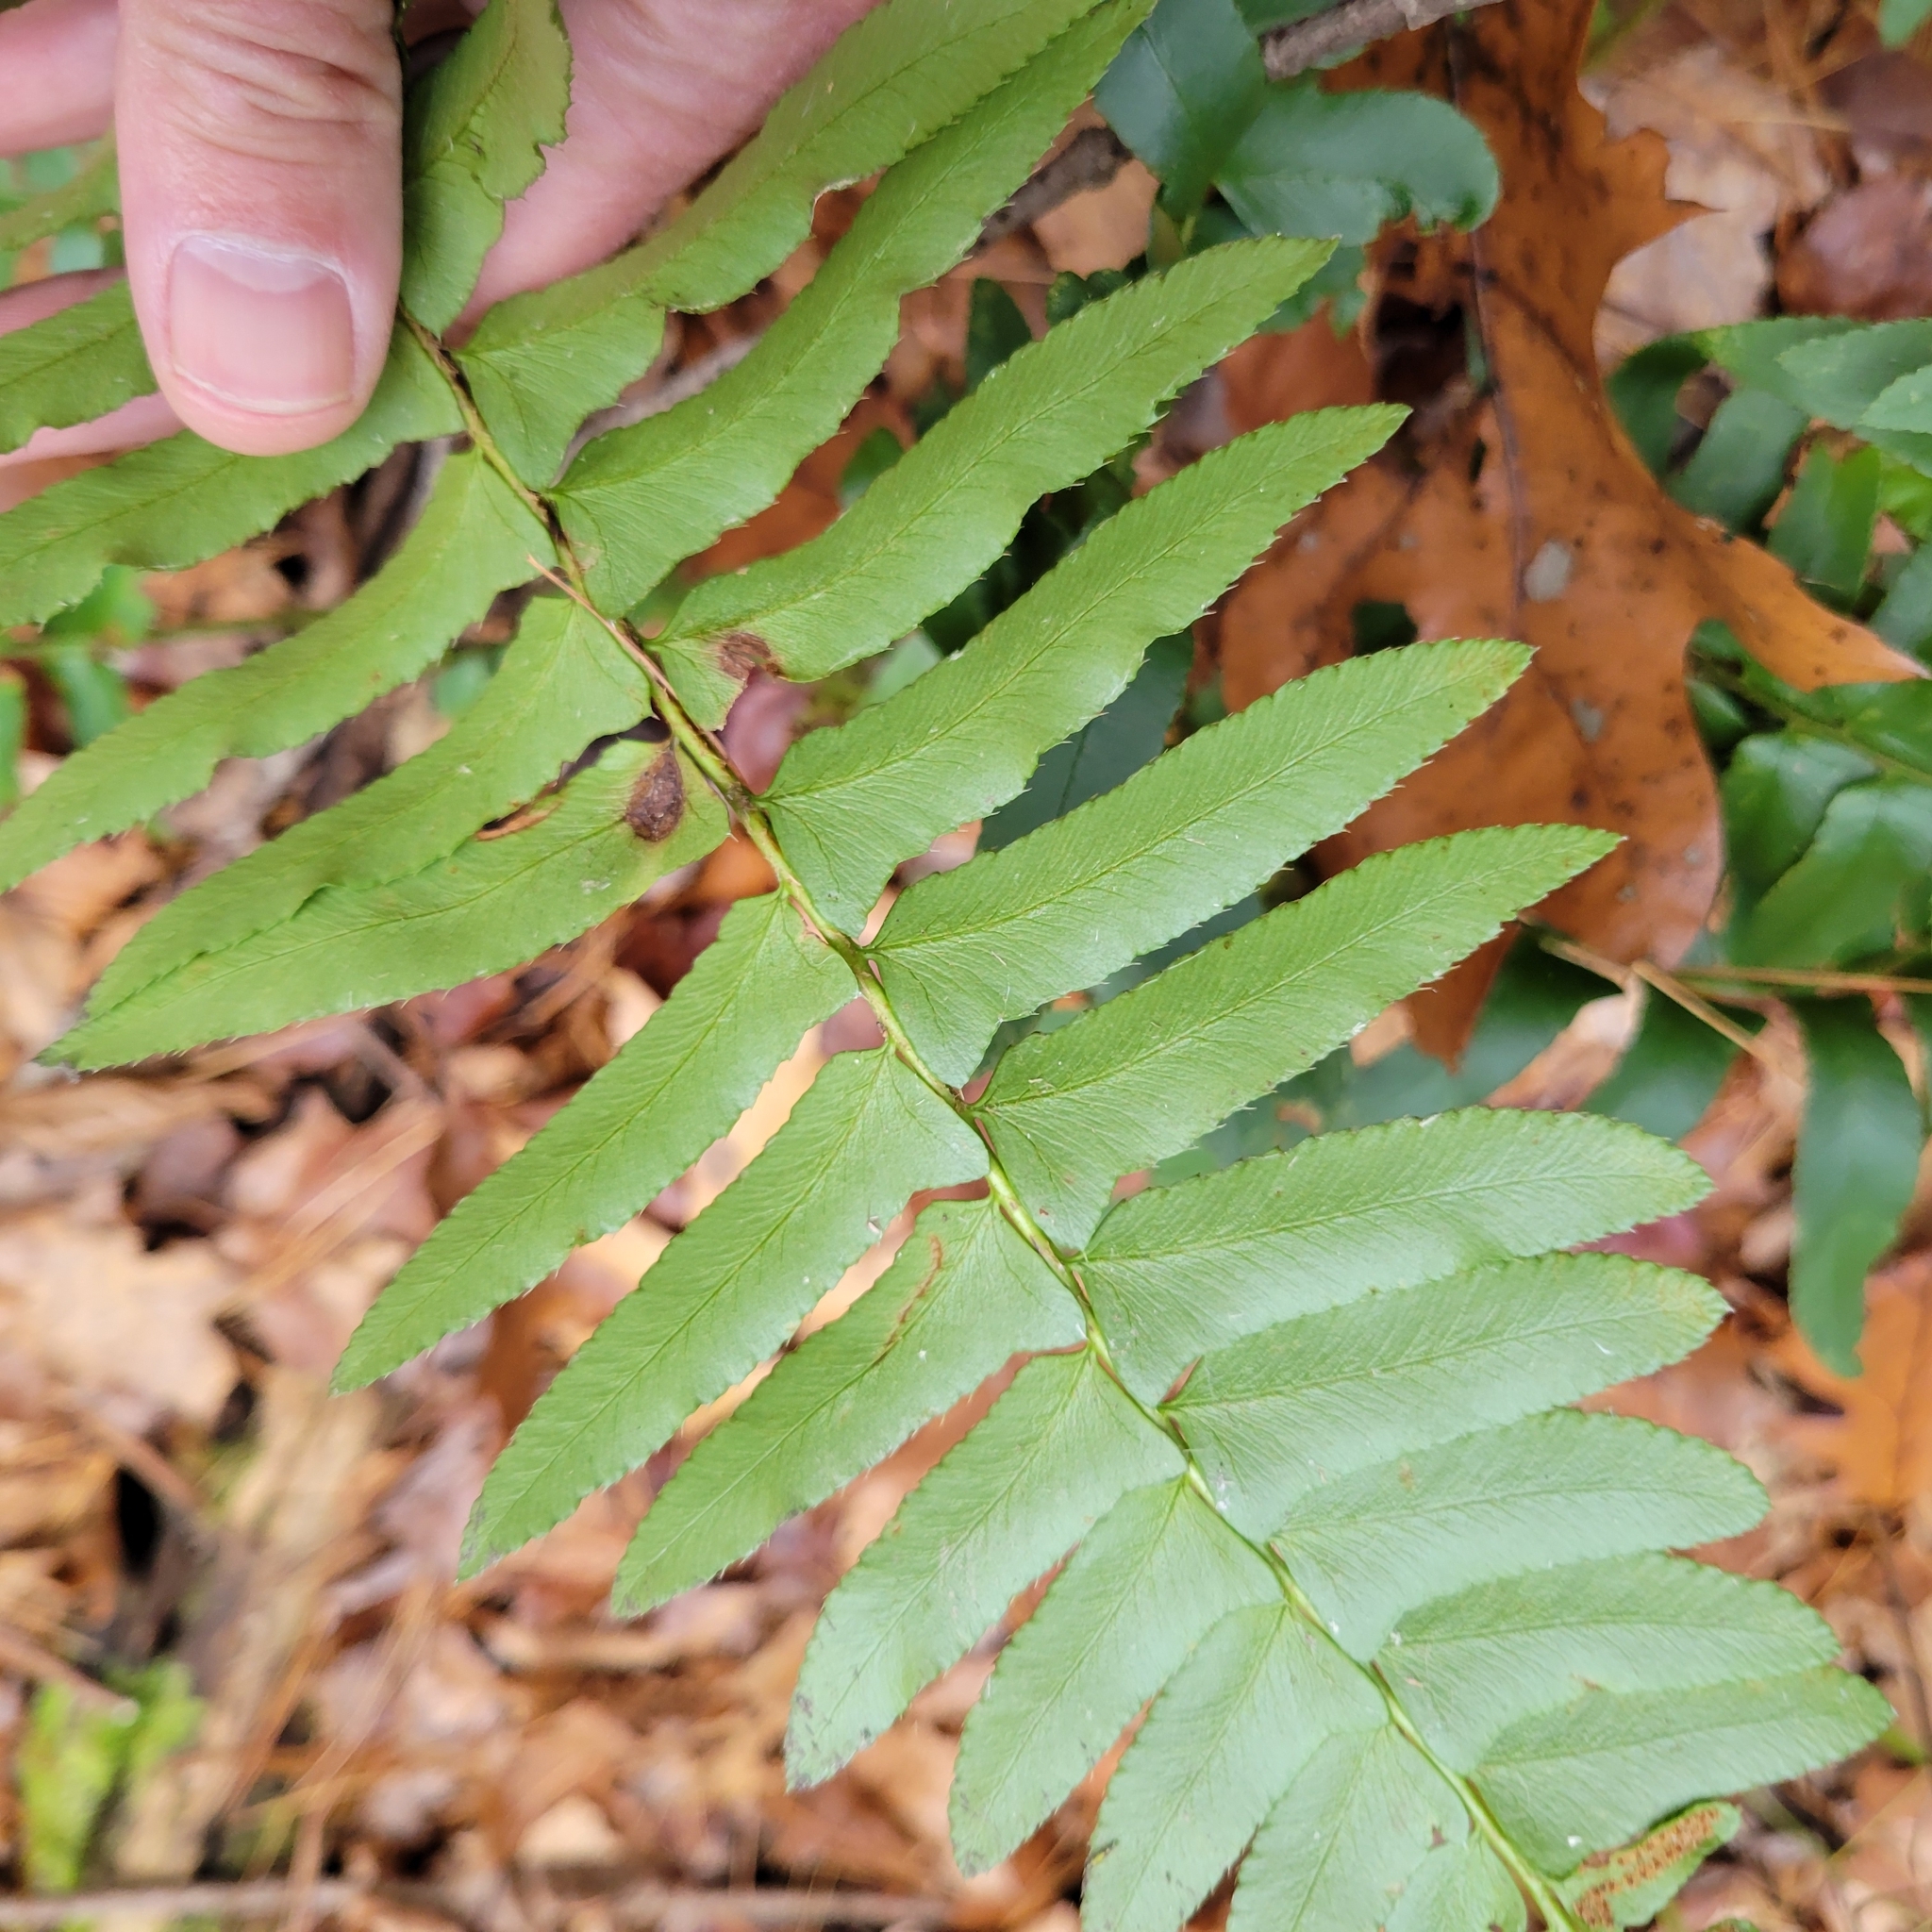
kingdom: Plantae
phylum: Tracheophyta
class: Polypodiopsida
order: Polypodiales
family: Dryopteridaceae
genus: Polystichum
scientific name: Polystichum acrostichoides
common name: Christmas fern
